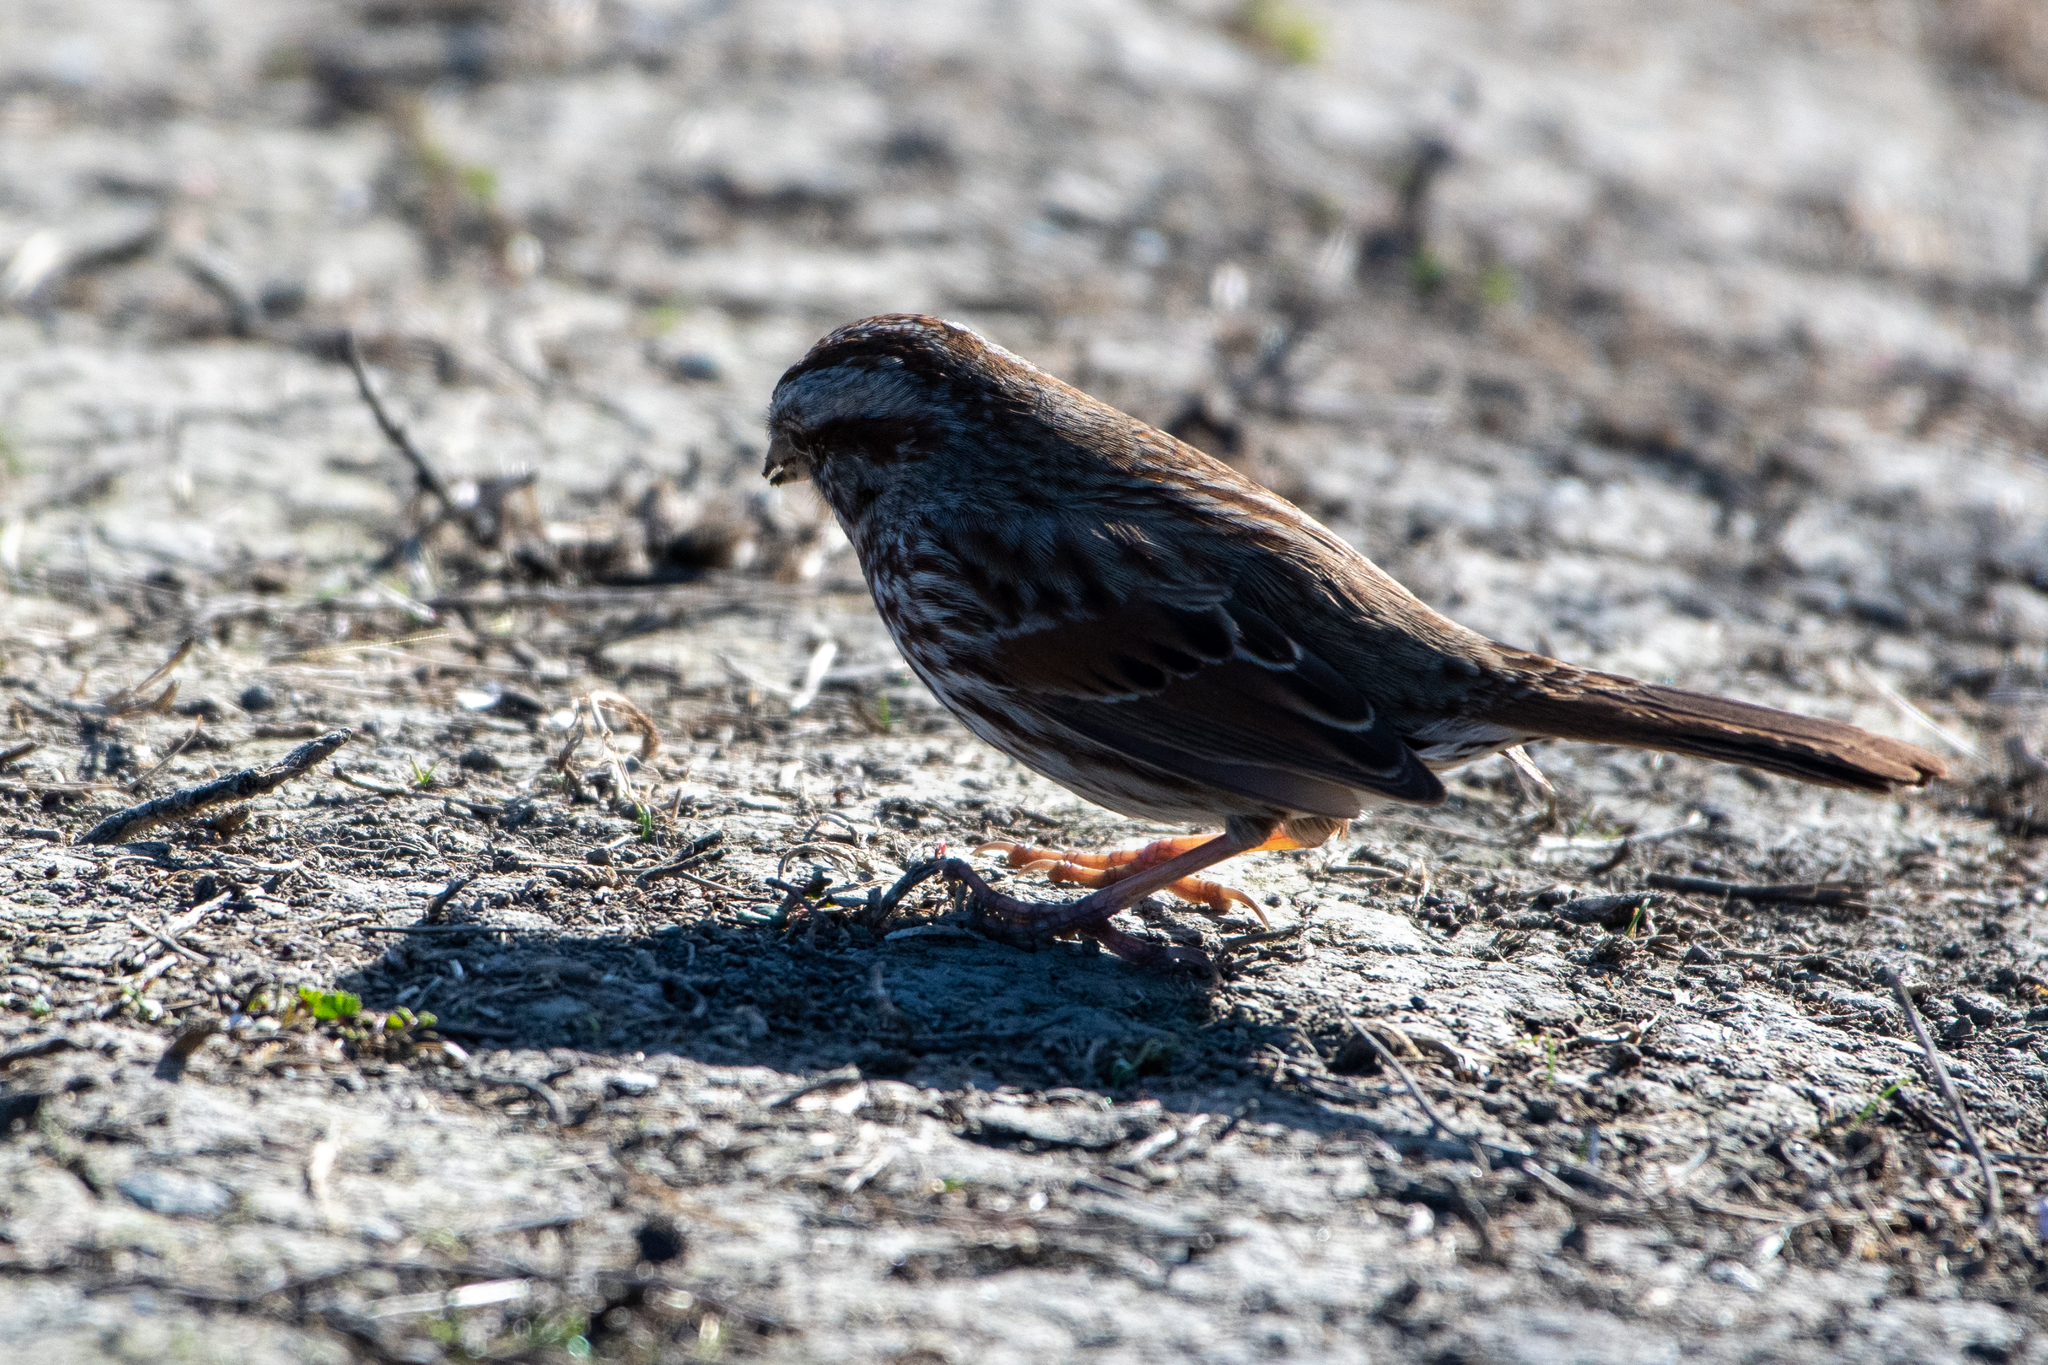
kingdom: Animalia
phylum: Chordata
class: Aves
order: Passeriformes
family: Passerellidae
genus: Melospiza
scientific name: Melospiza melodia
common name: Song sparrow
